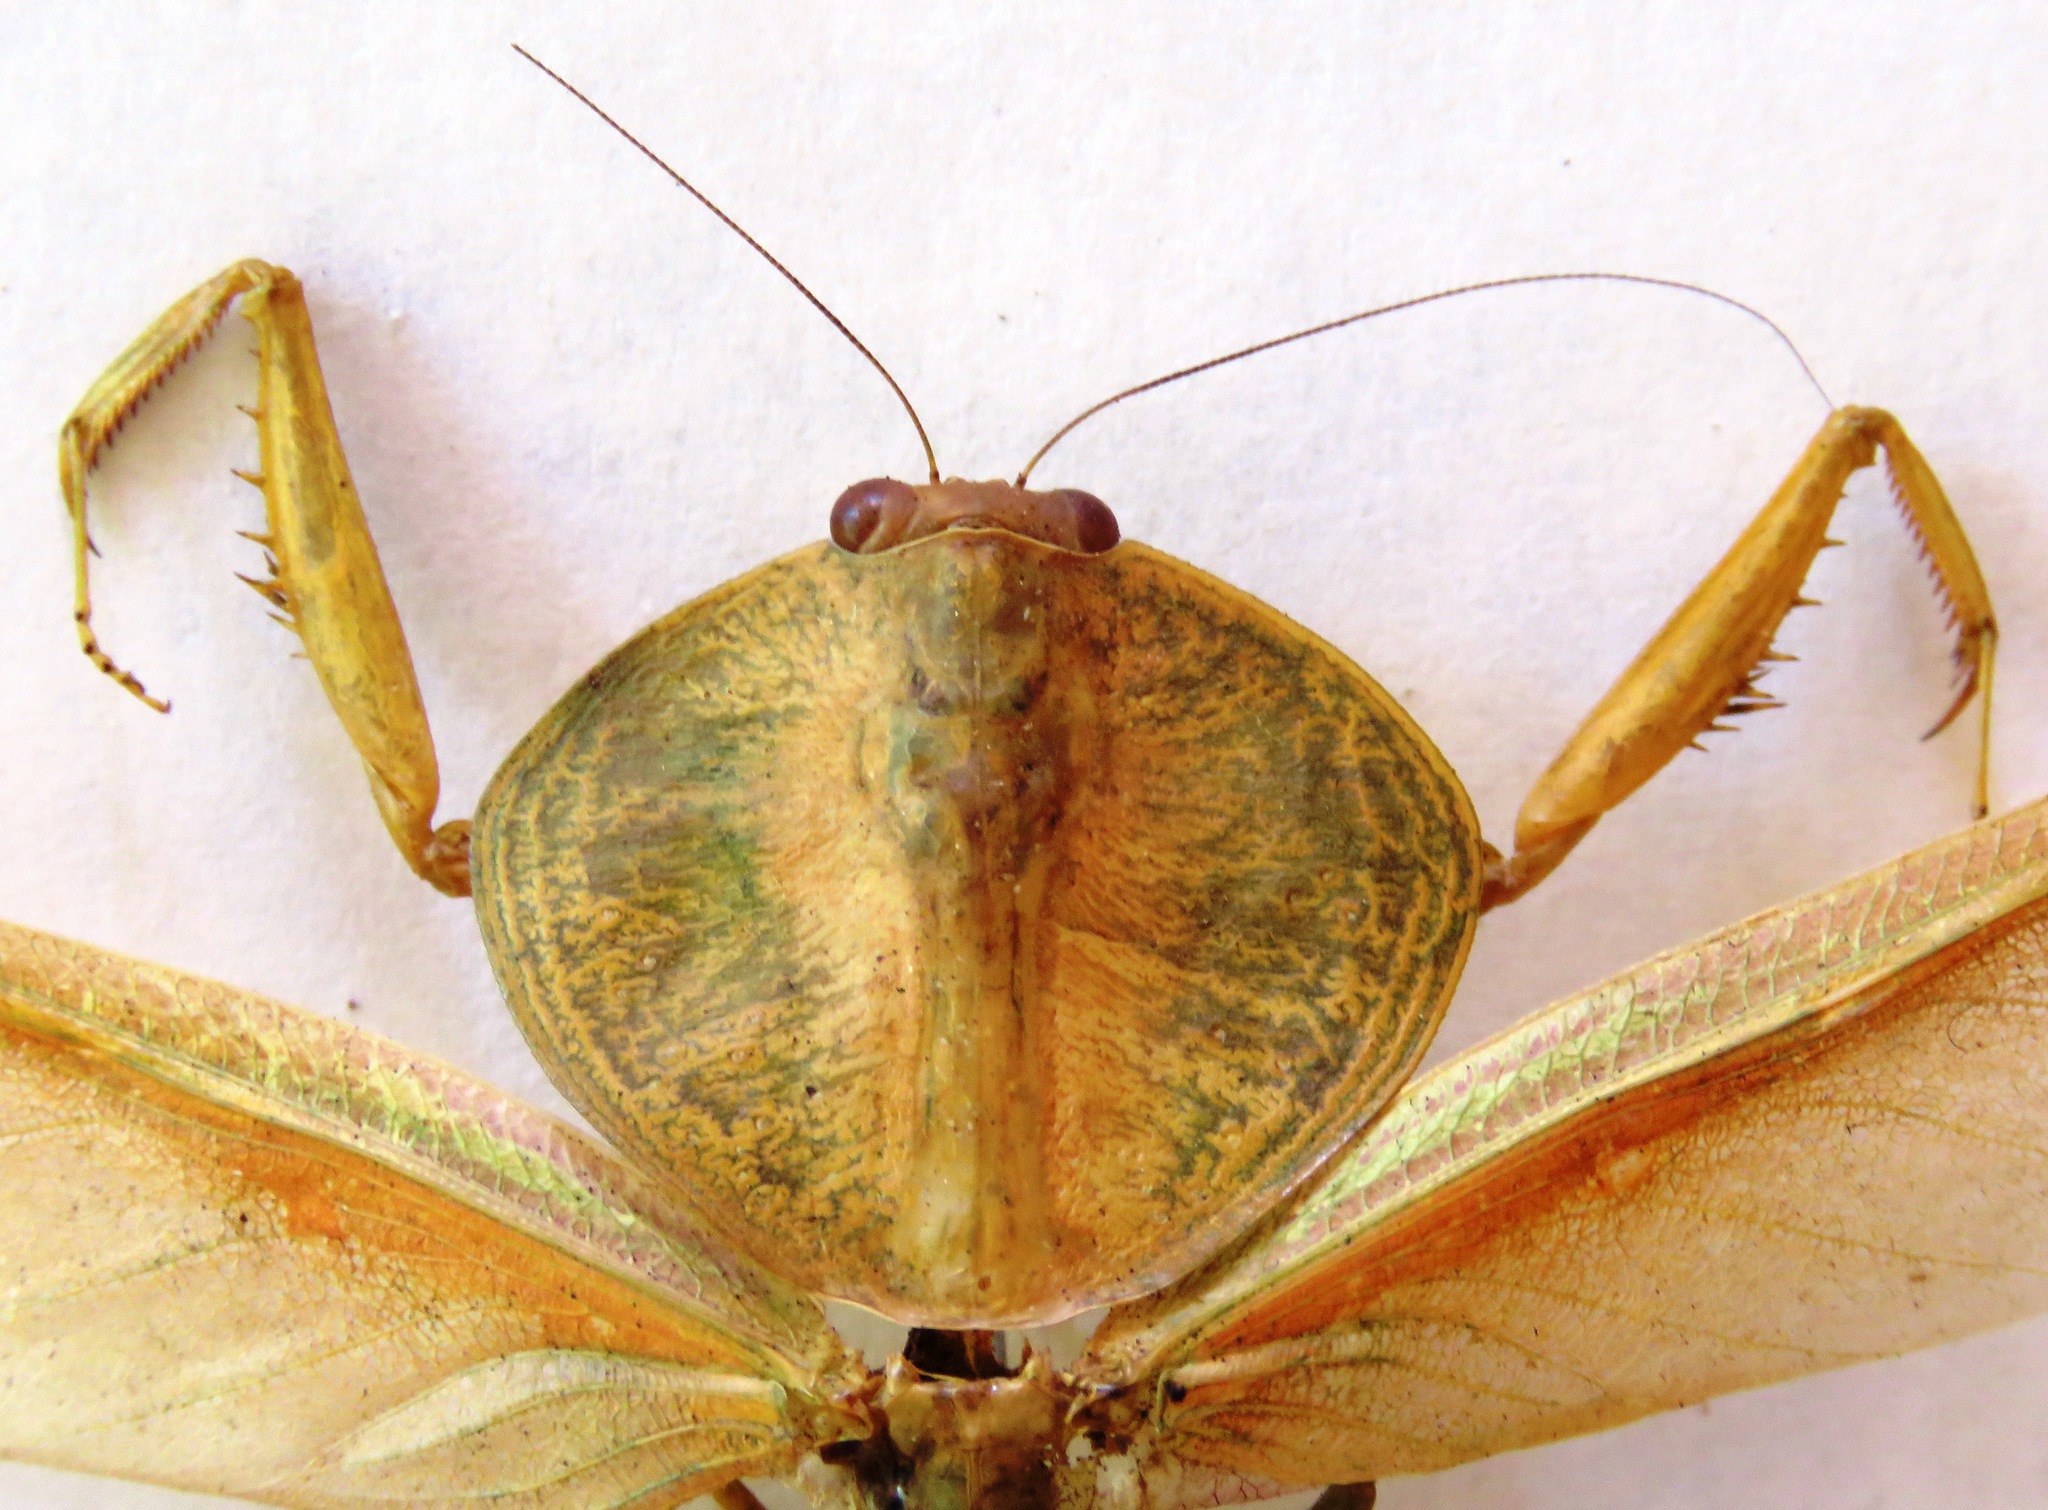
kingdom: Animalia
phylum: Arthropoda
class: Insecta
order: Mantodea
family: Mantidae
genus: Choeradodis
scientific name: Choeradodis rhombicollis
